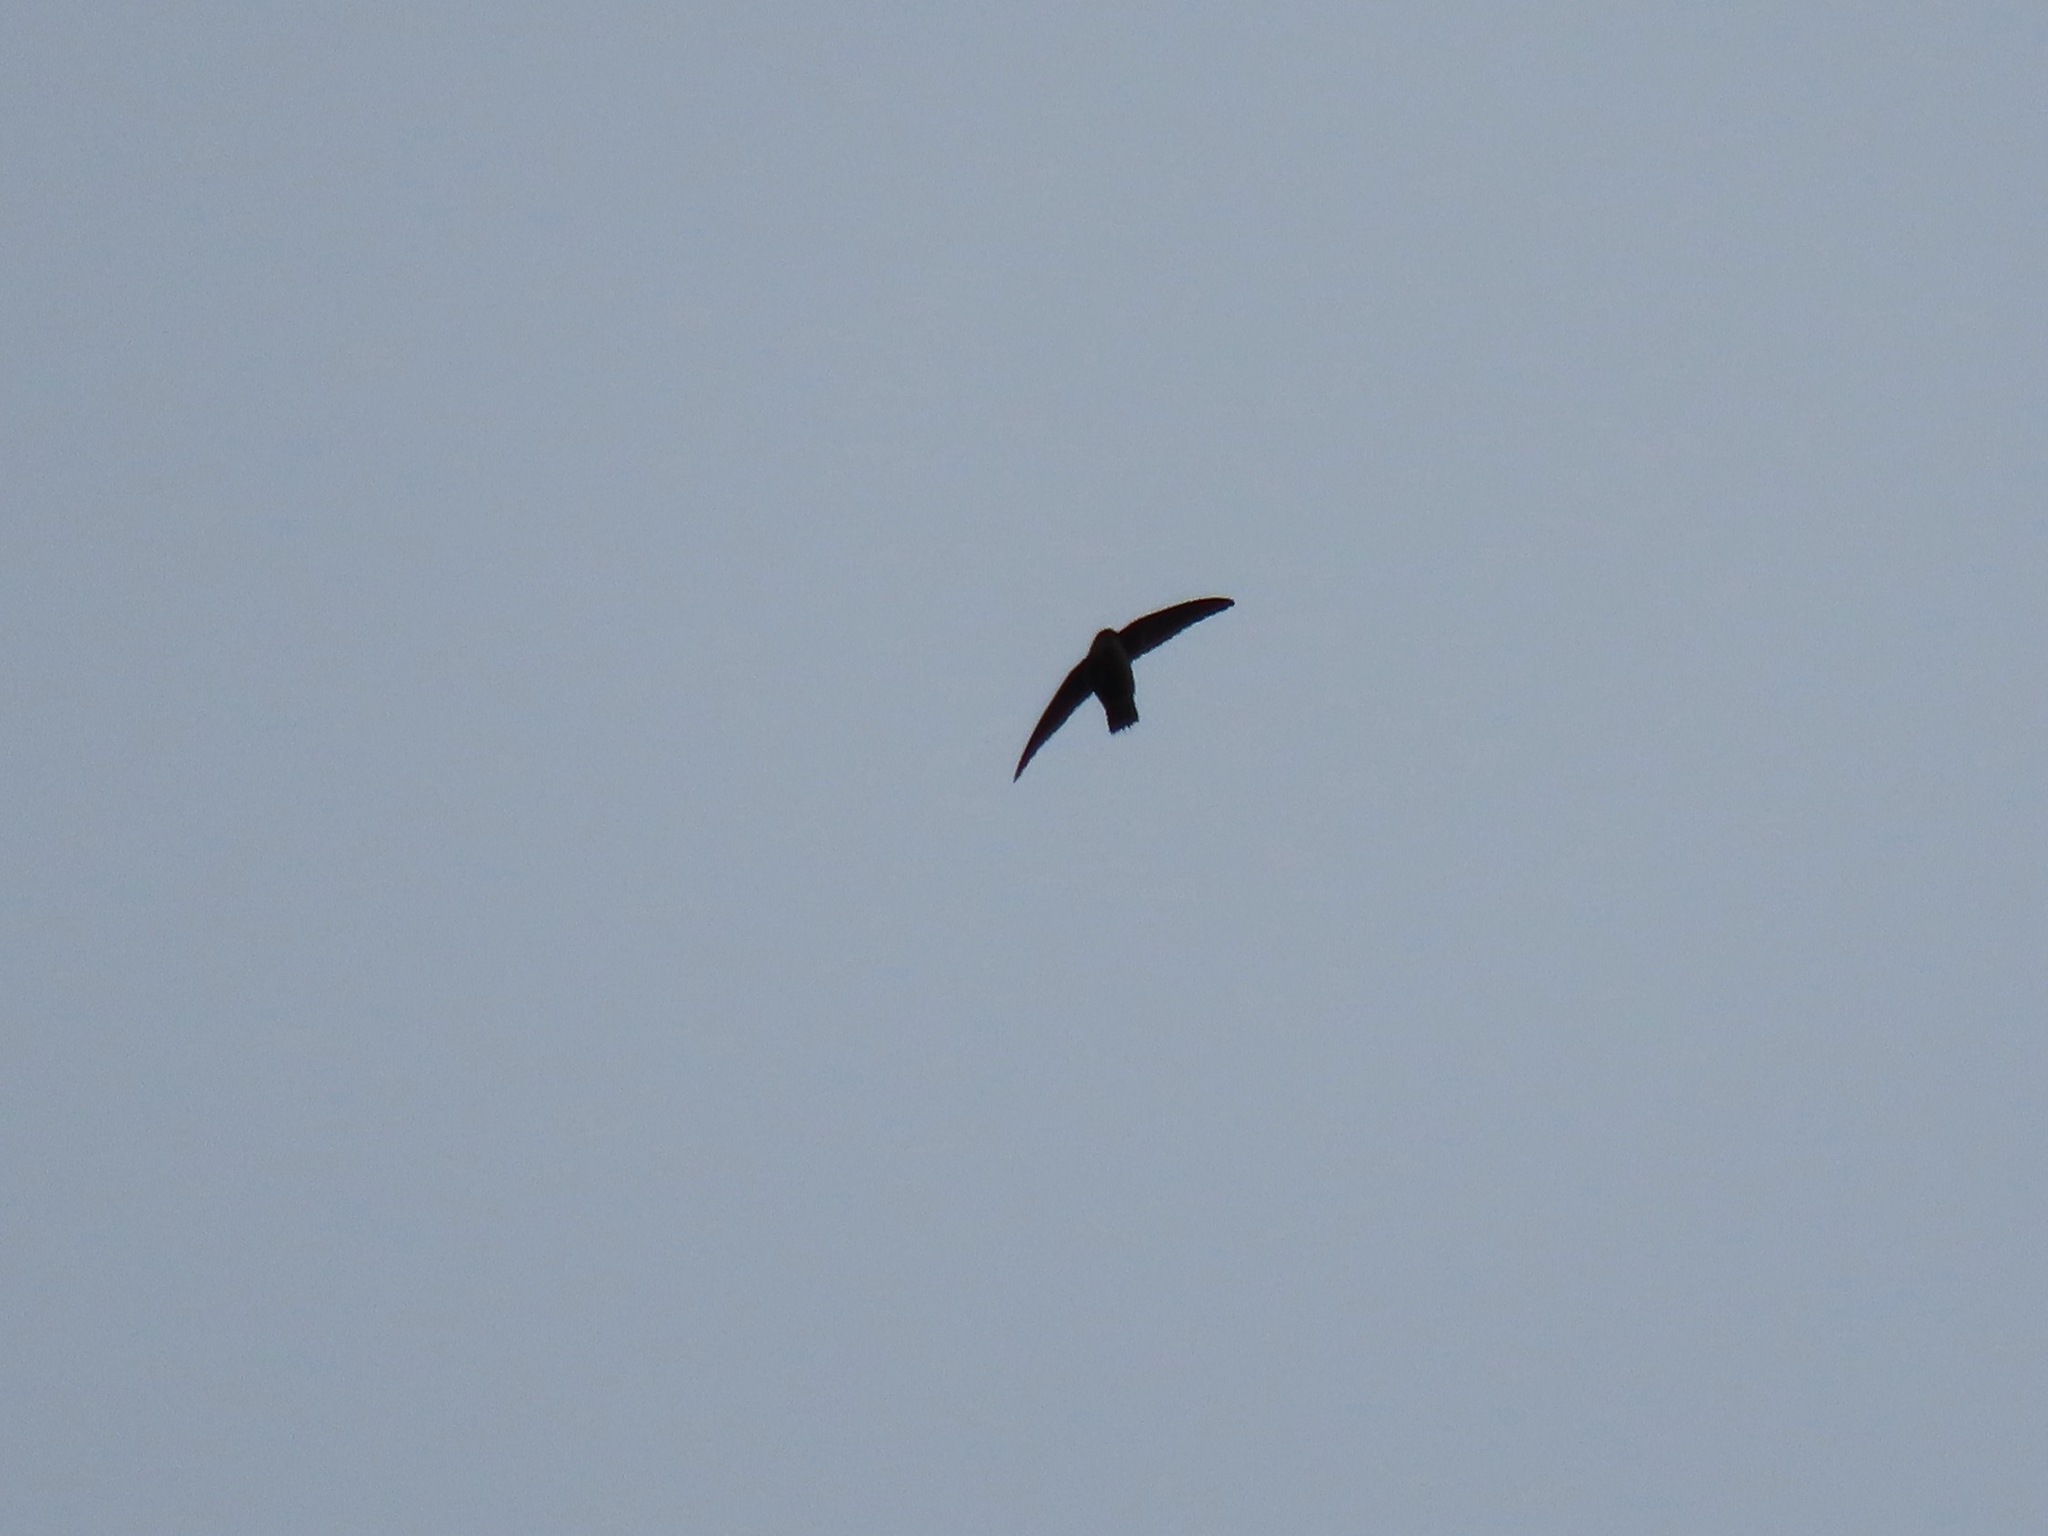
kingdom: Animalia
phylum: Chordata
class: Aves
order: Apodiformes
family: Apodidae
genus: Chaetura
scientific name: Chaetura vauxi
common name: Vaux's swift
